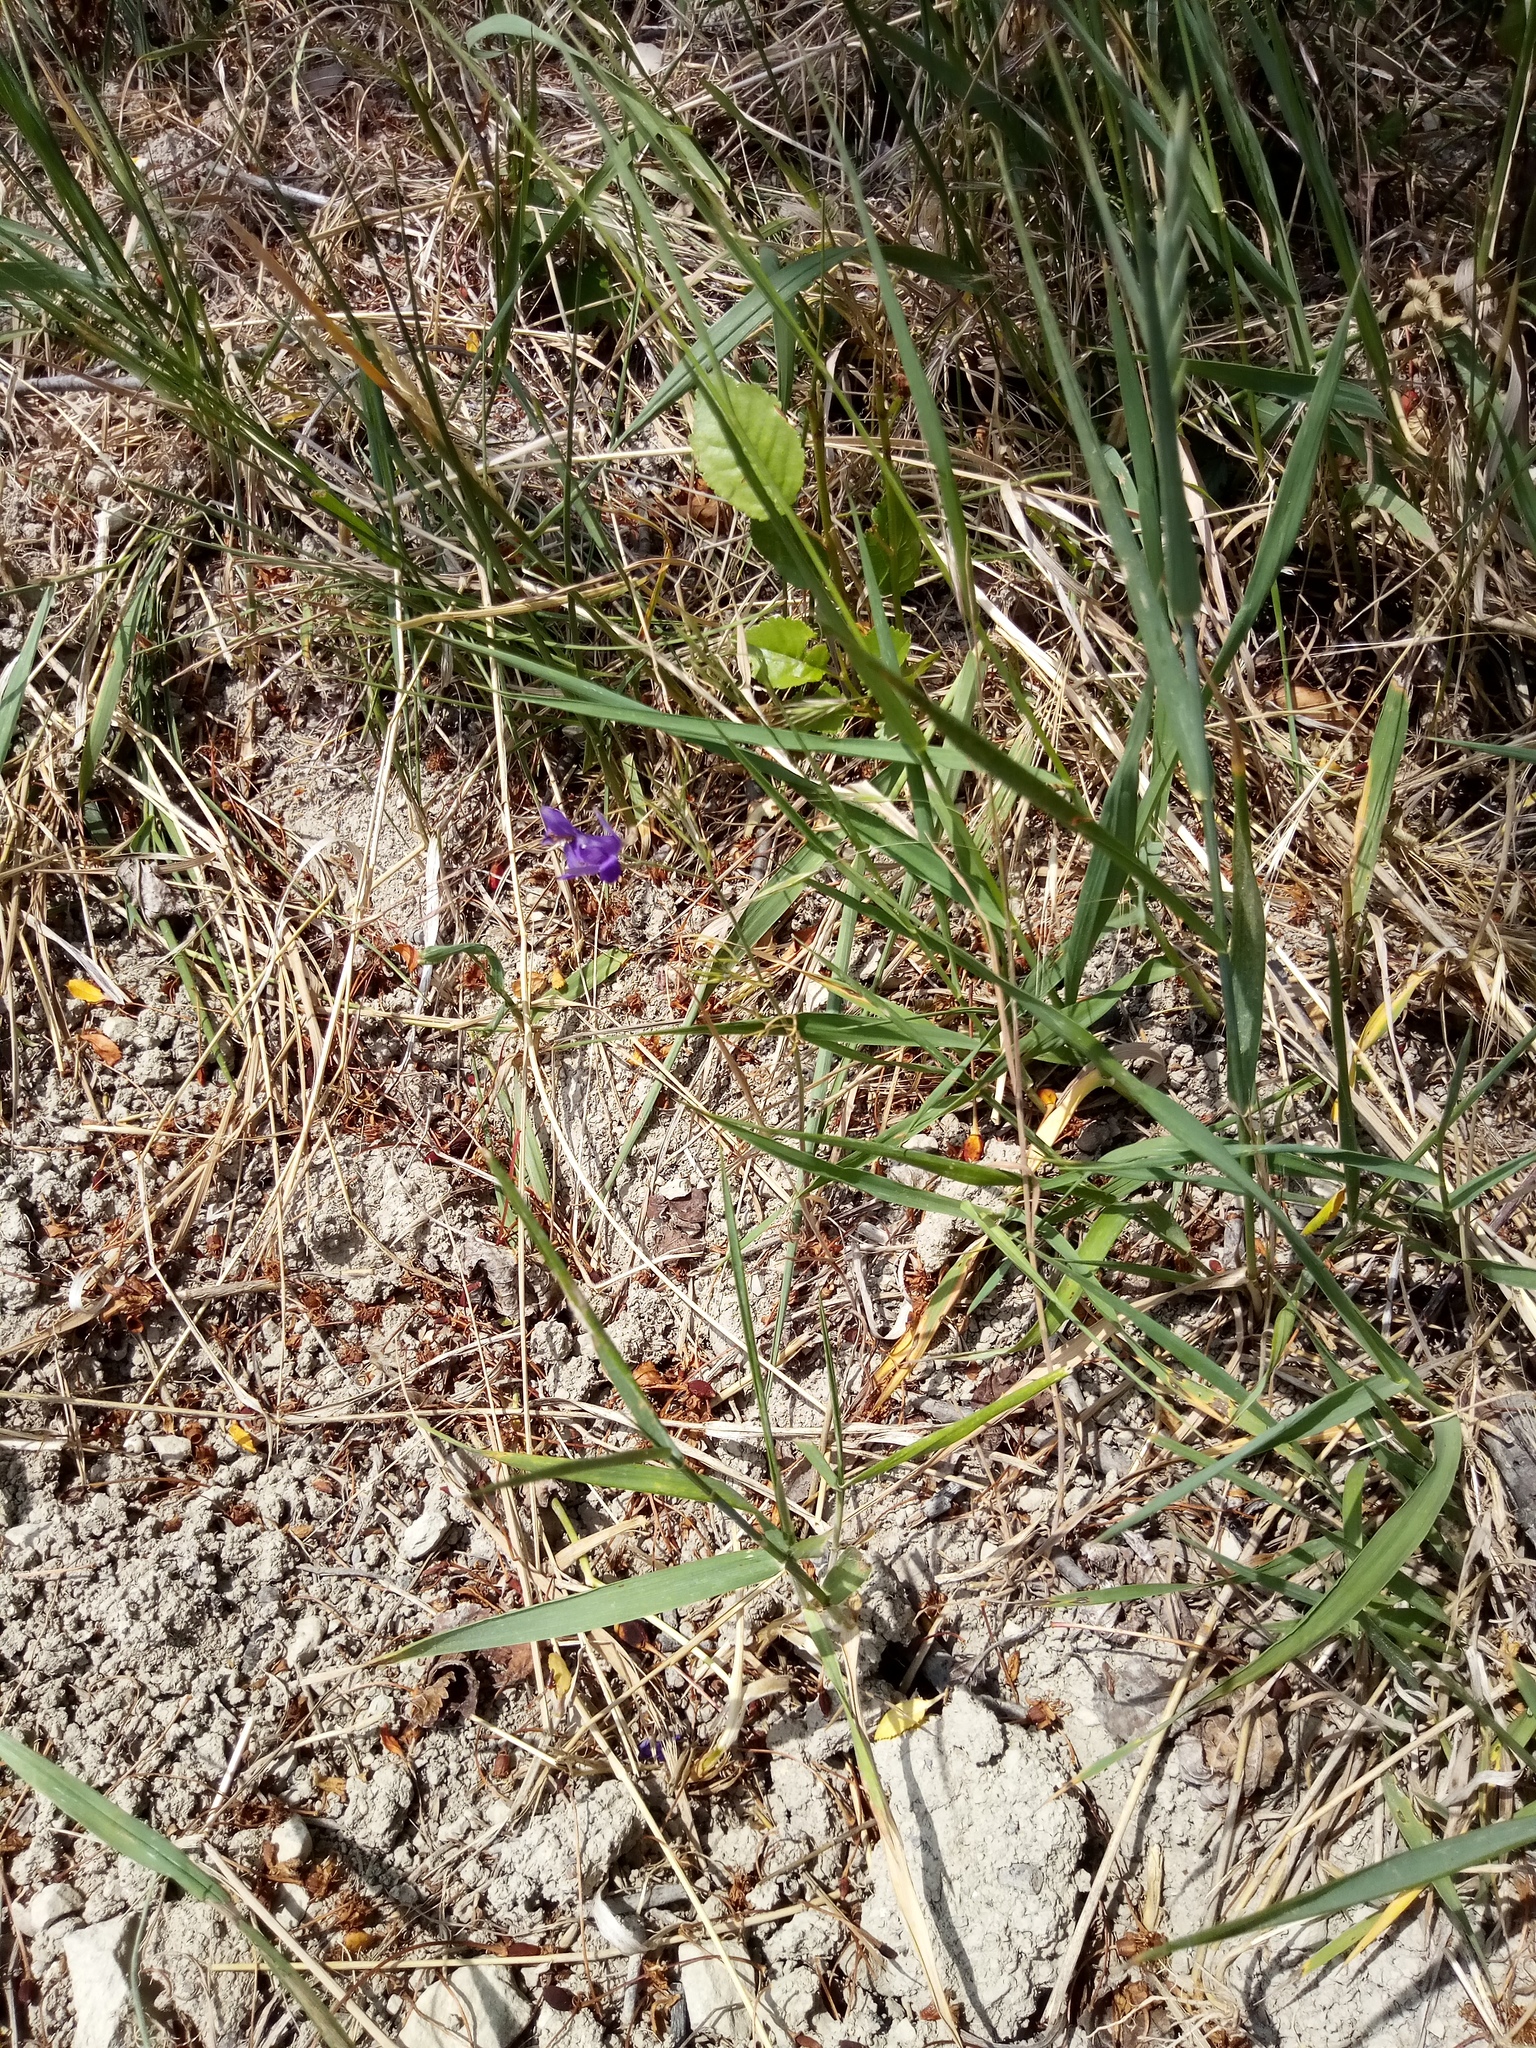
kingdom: Plantae
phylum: Tracheophyta
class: Magnoliopsida
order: Ranunculales
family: Ranunculaceae
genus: Delphinium
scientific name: Delphinium consolida
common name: Branching larkspur
